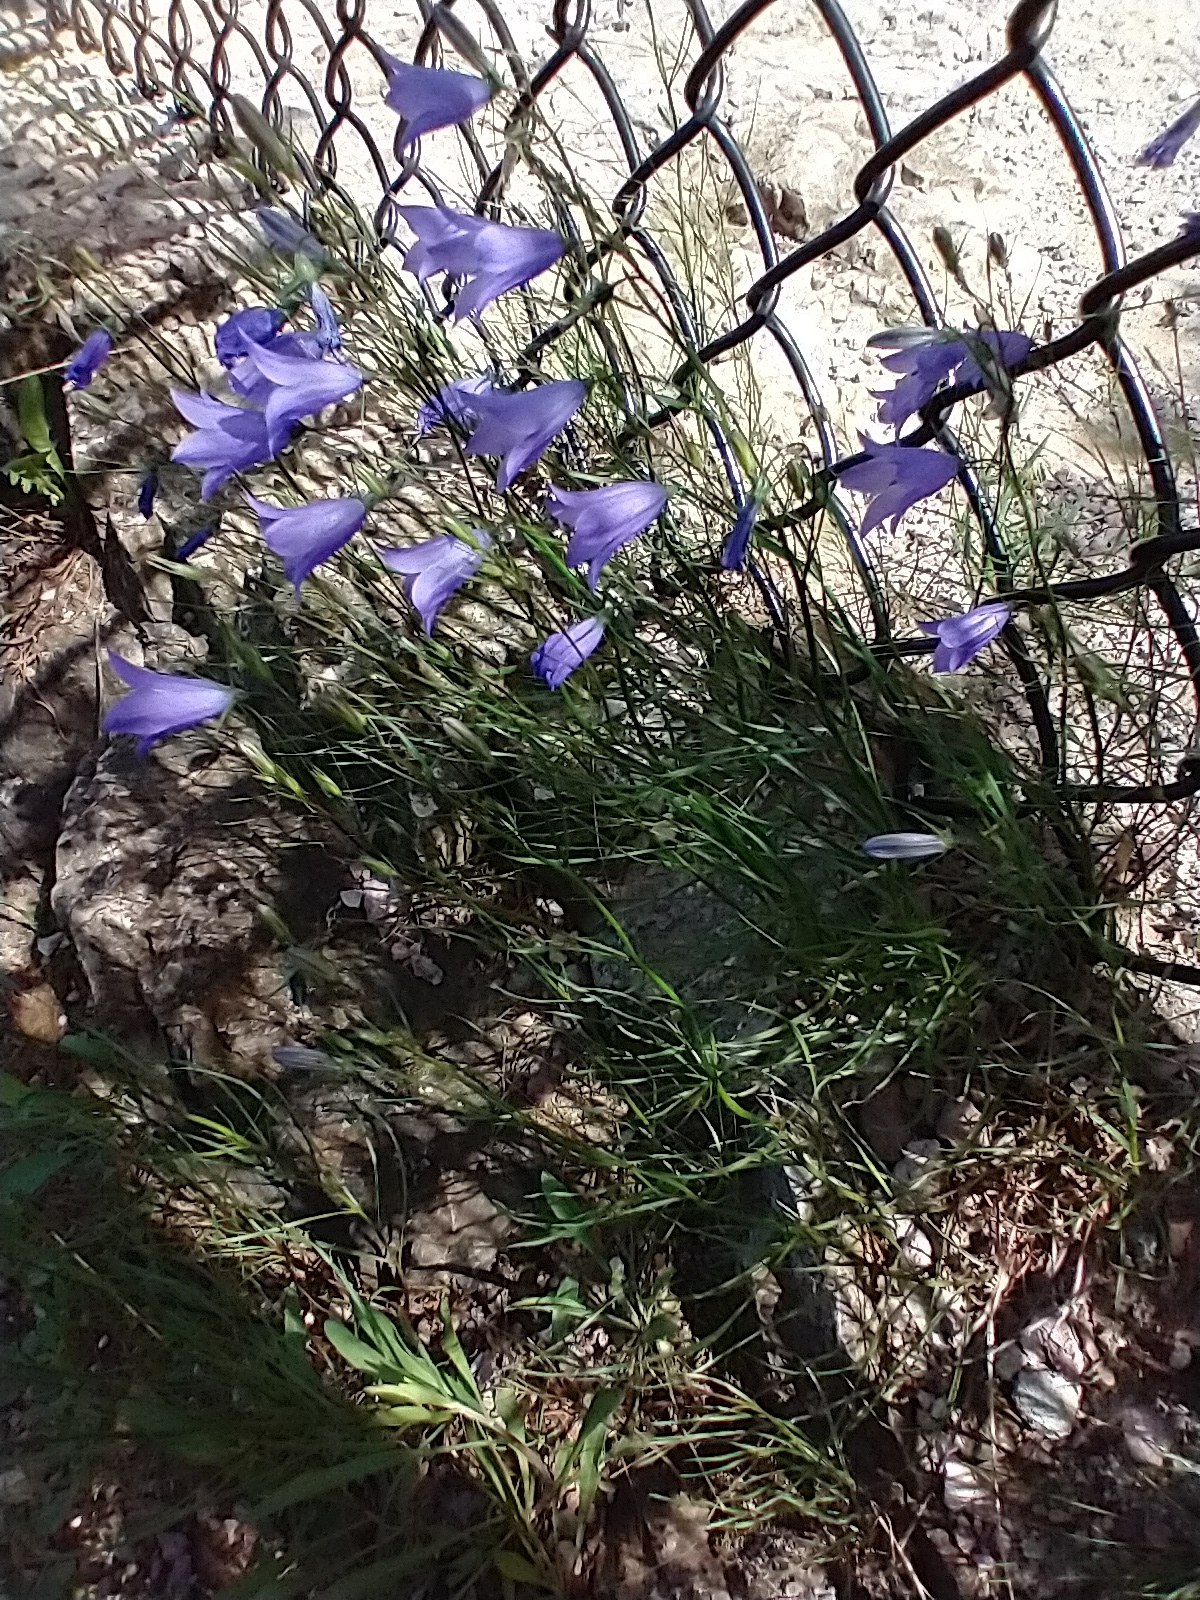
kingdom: Plantae
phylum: Tracheophyta
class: Magnoliopsida
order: Asterales
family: Campanulaceae
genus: Campanula
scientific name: Campanula intercedens
